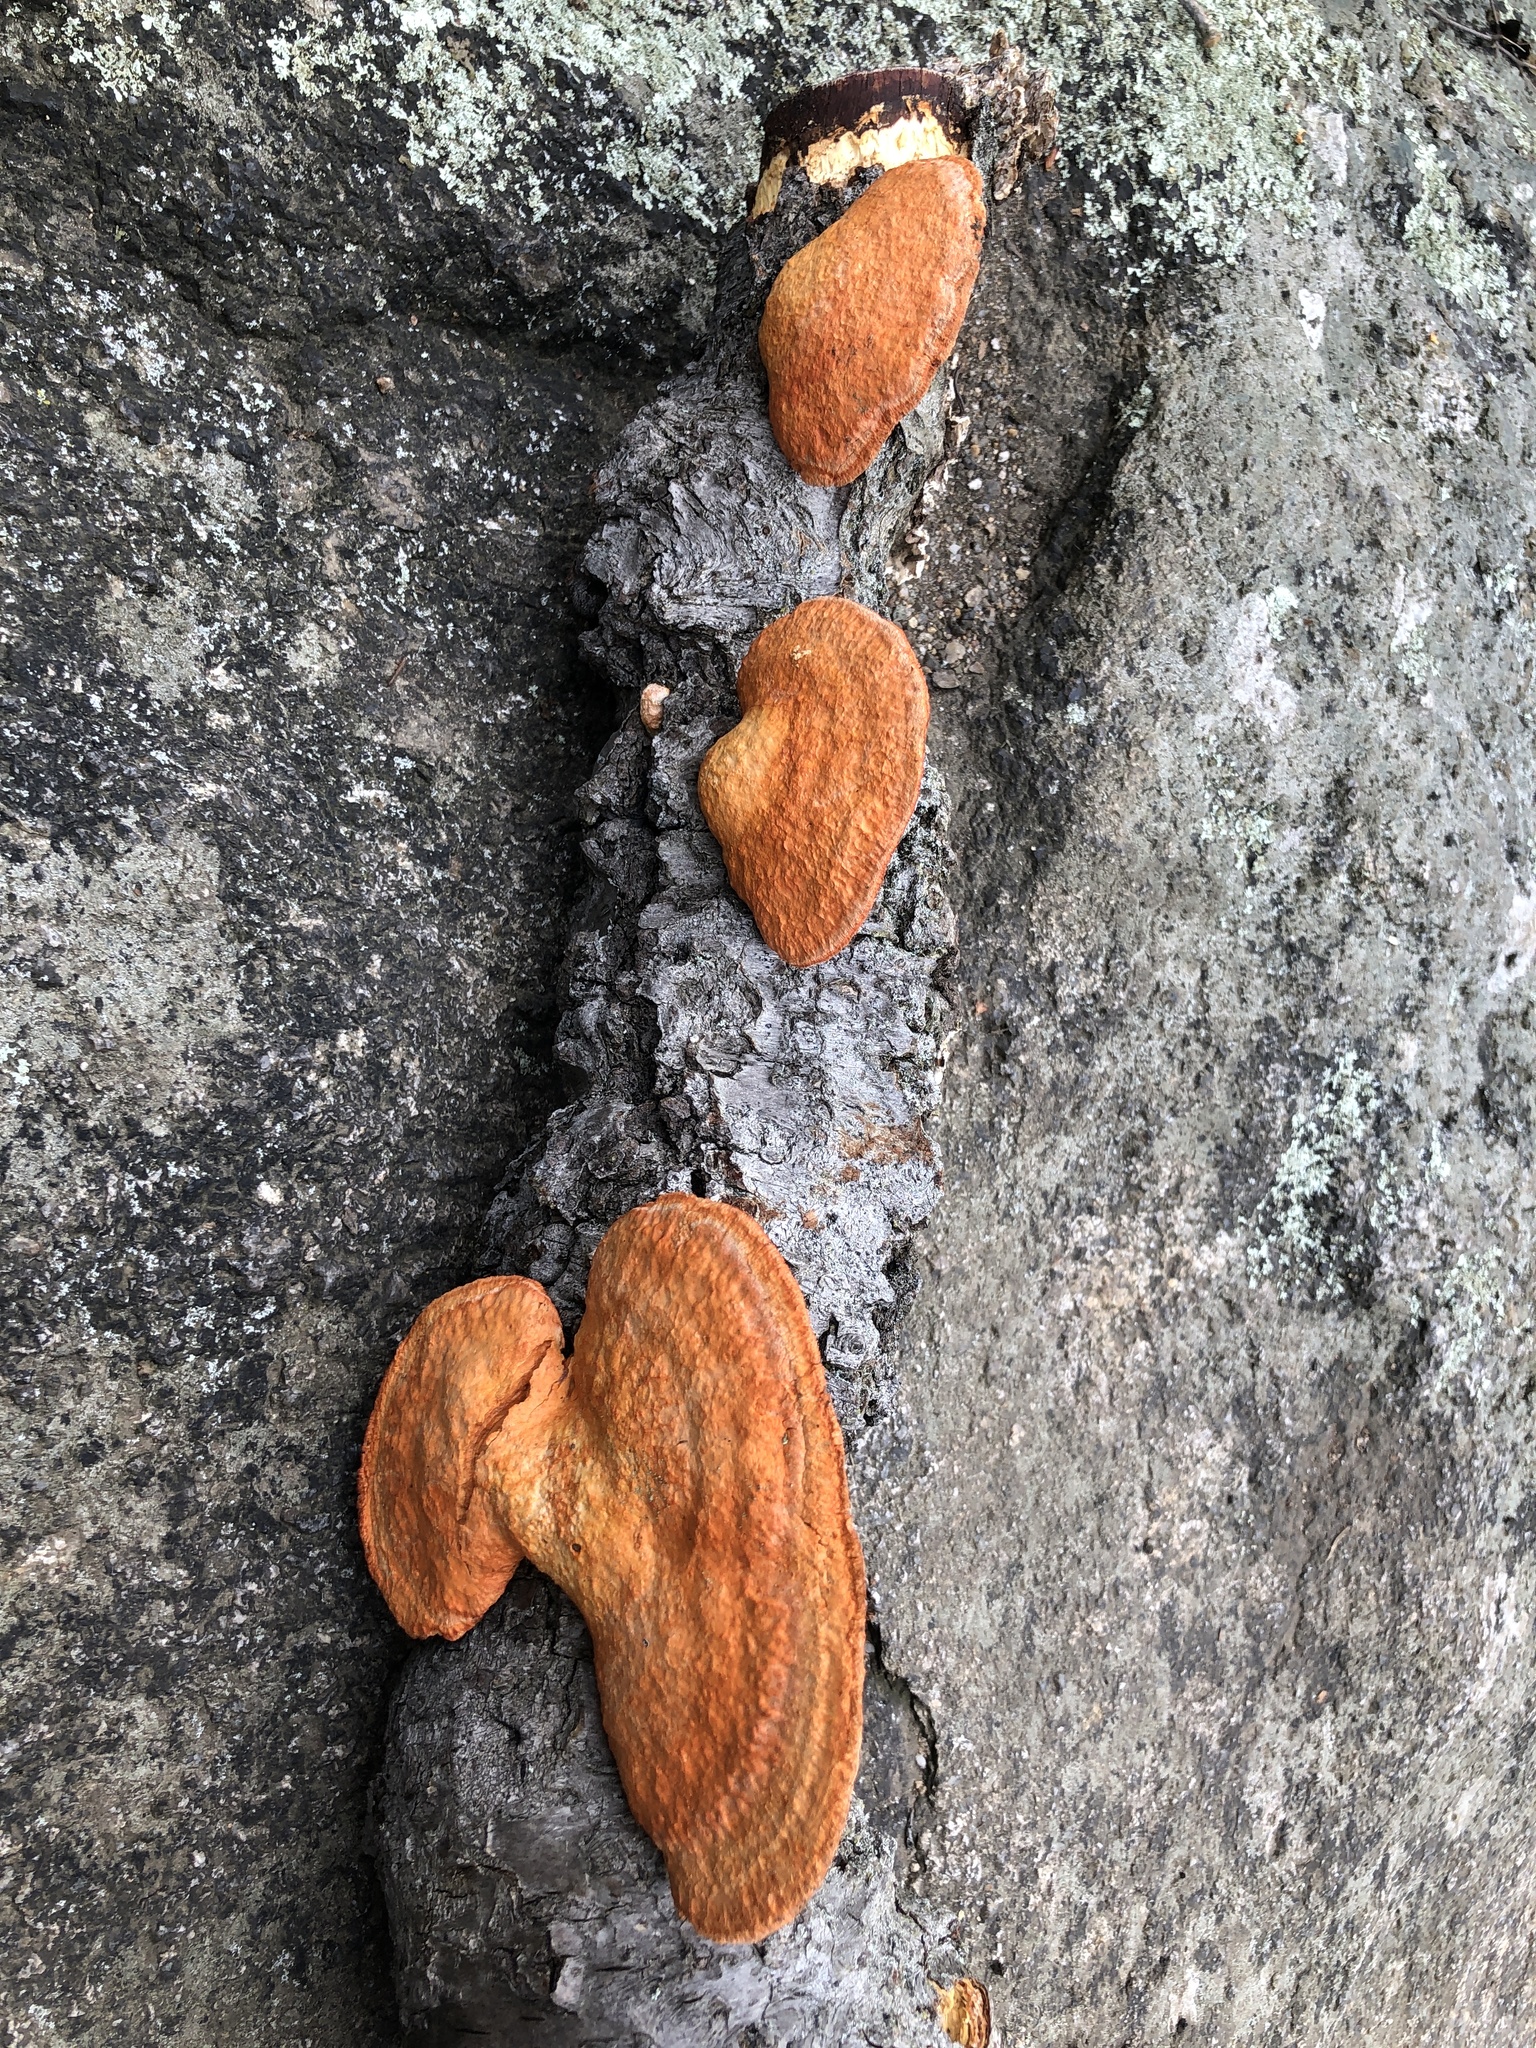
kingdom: Fungi
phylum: Basidiomycota
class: Agaricomycetes
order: Polyporales
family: Polyporaceae
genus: Trametes
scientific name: Trametes cinnabarina
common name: Northern cinnabar polypore
